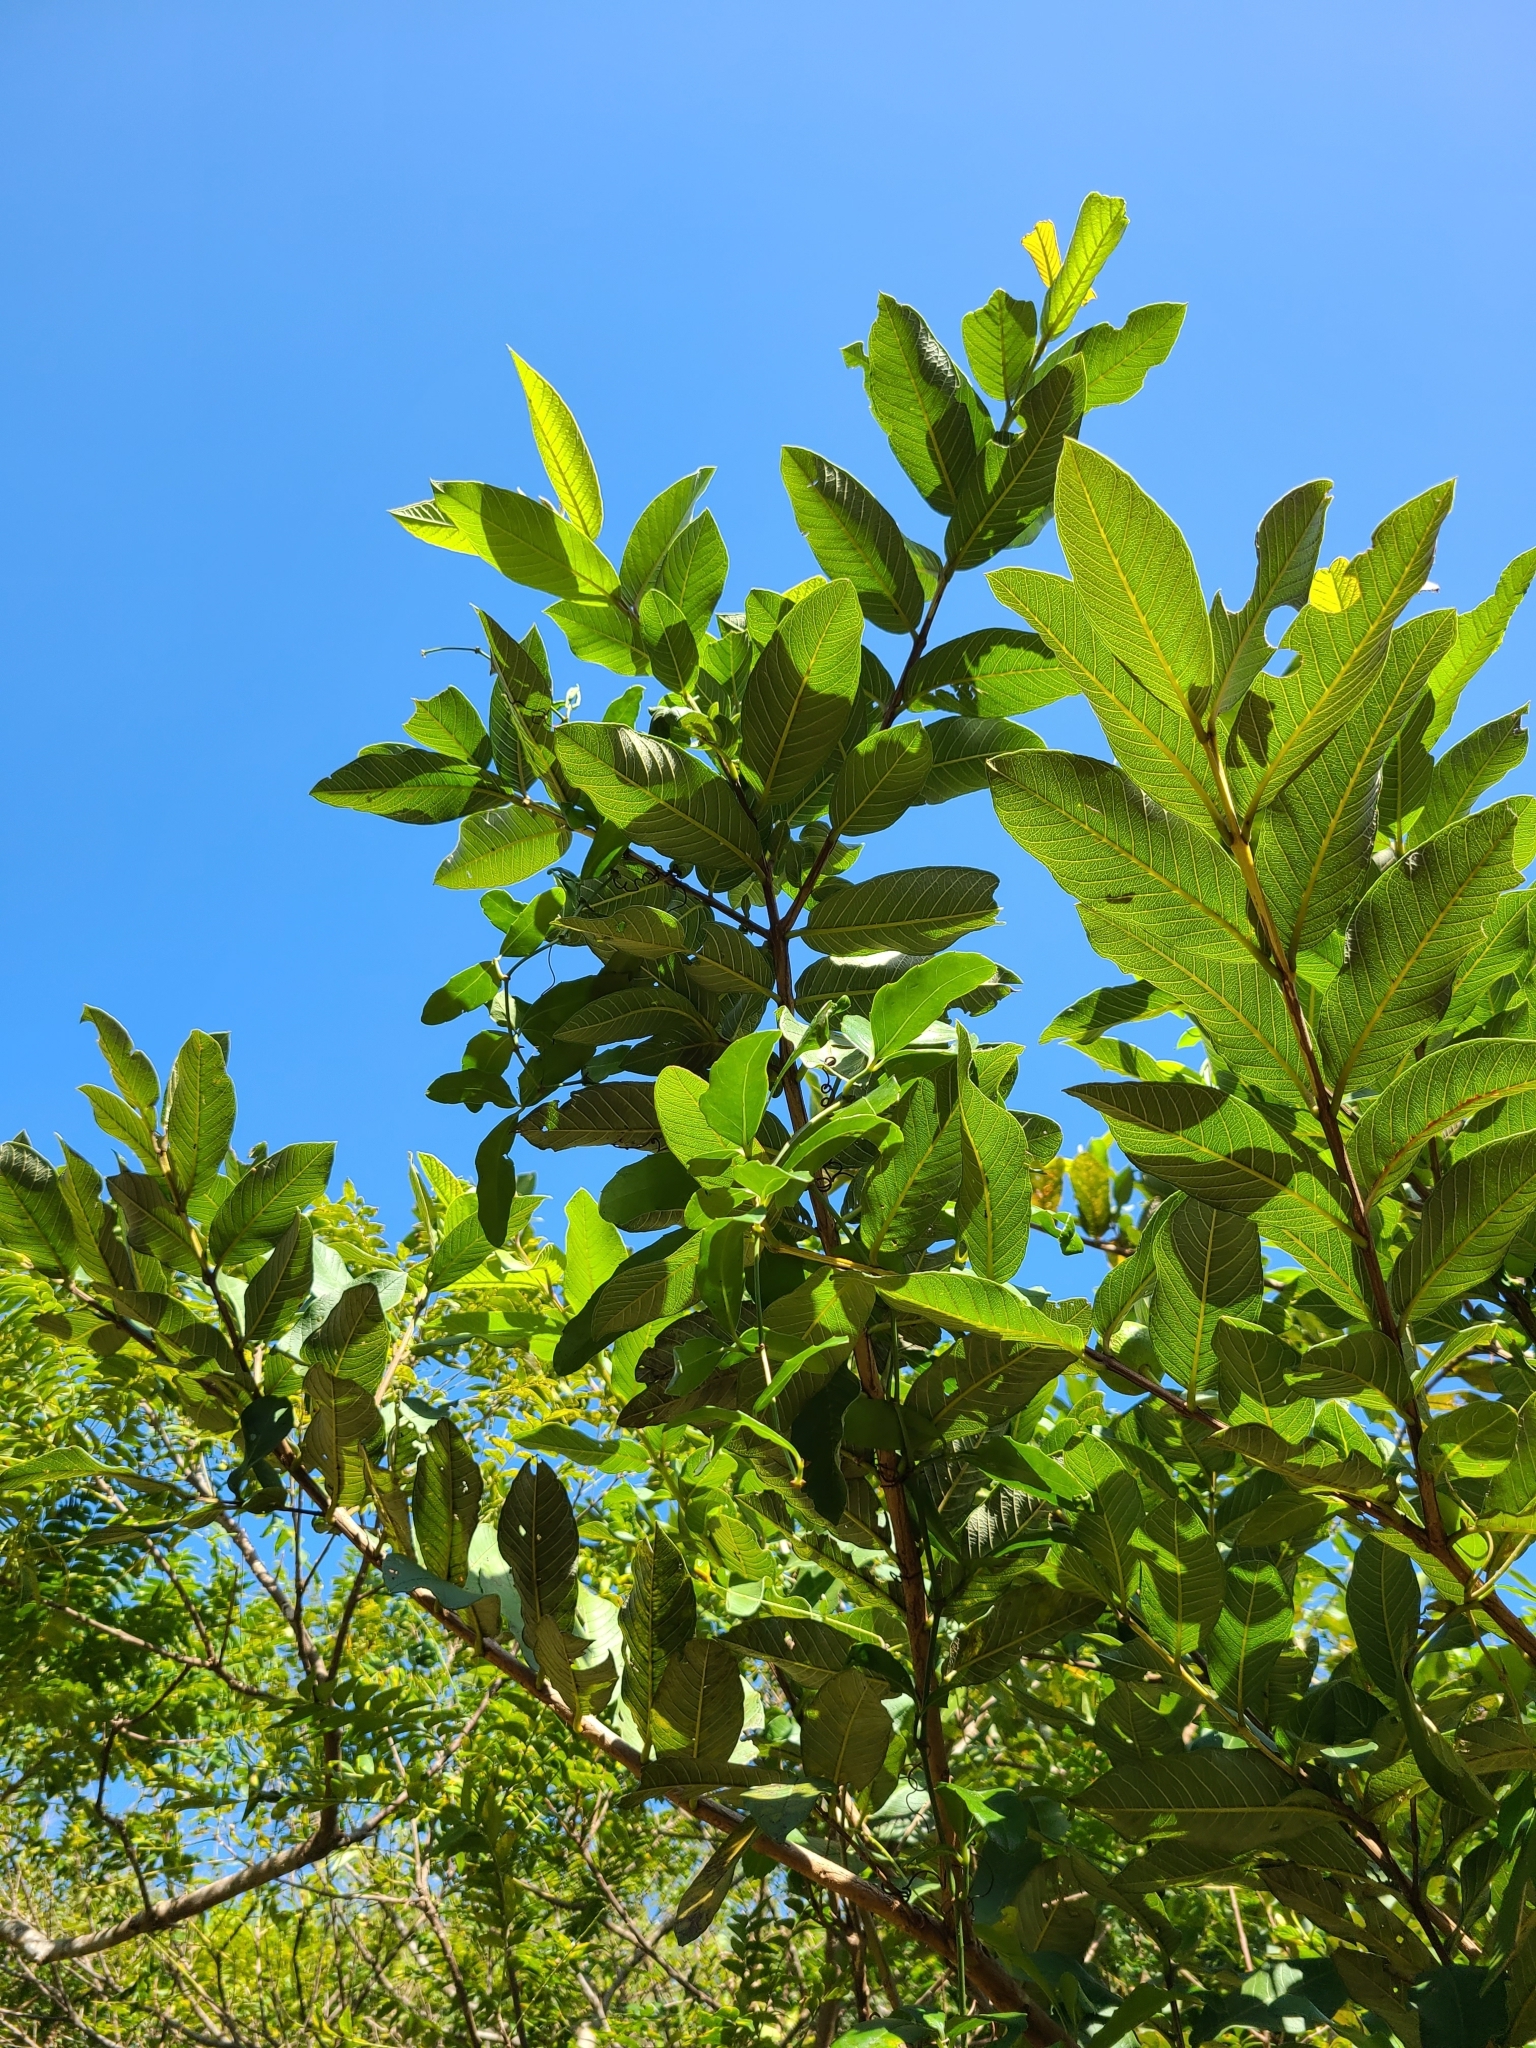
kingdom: Plantae
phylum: Tracheophyta
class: Magnoliopsida
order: Myrtales
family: Myrtaceae
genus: Psidium
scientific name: Psidium guajava
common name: Guava
